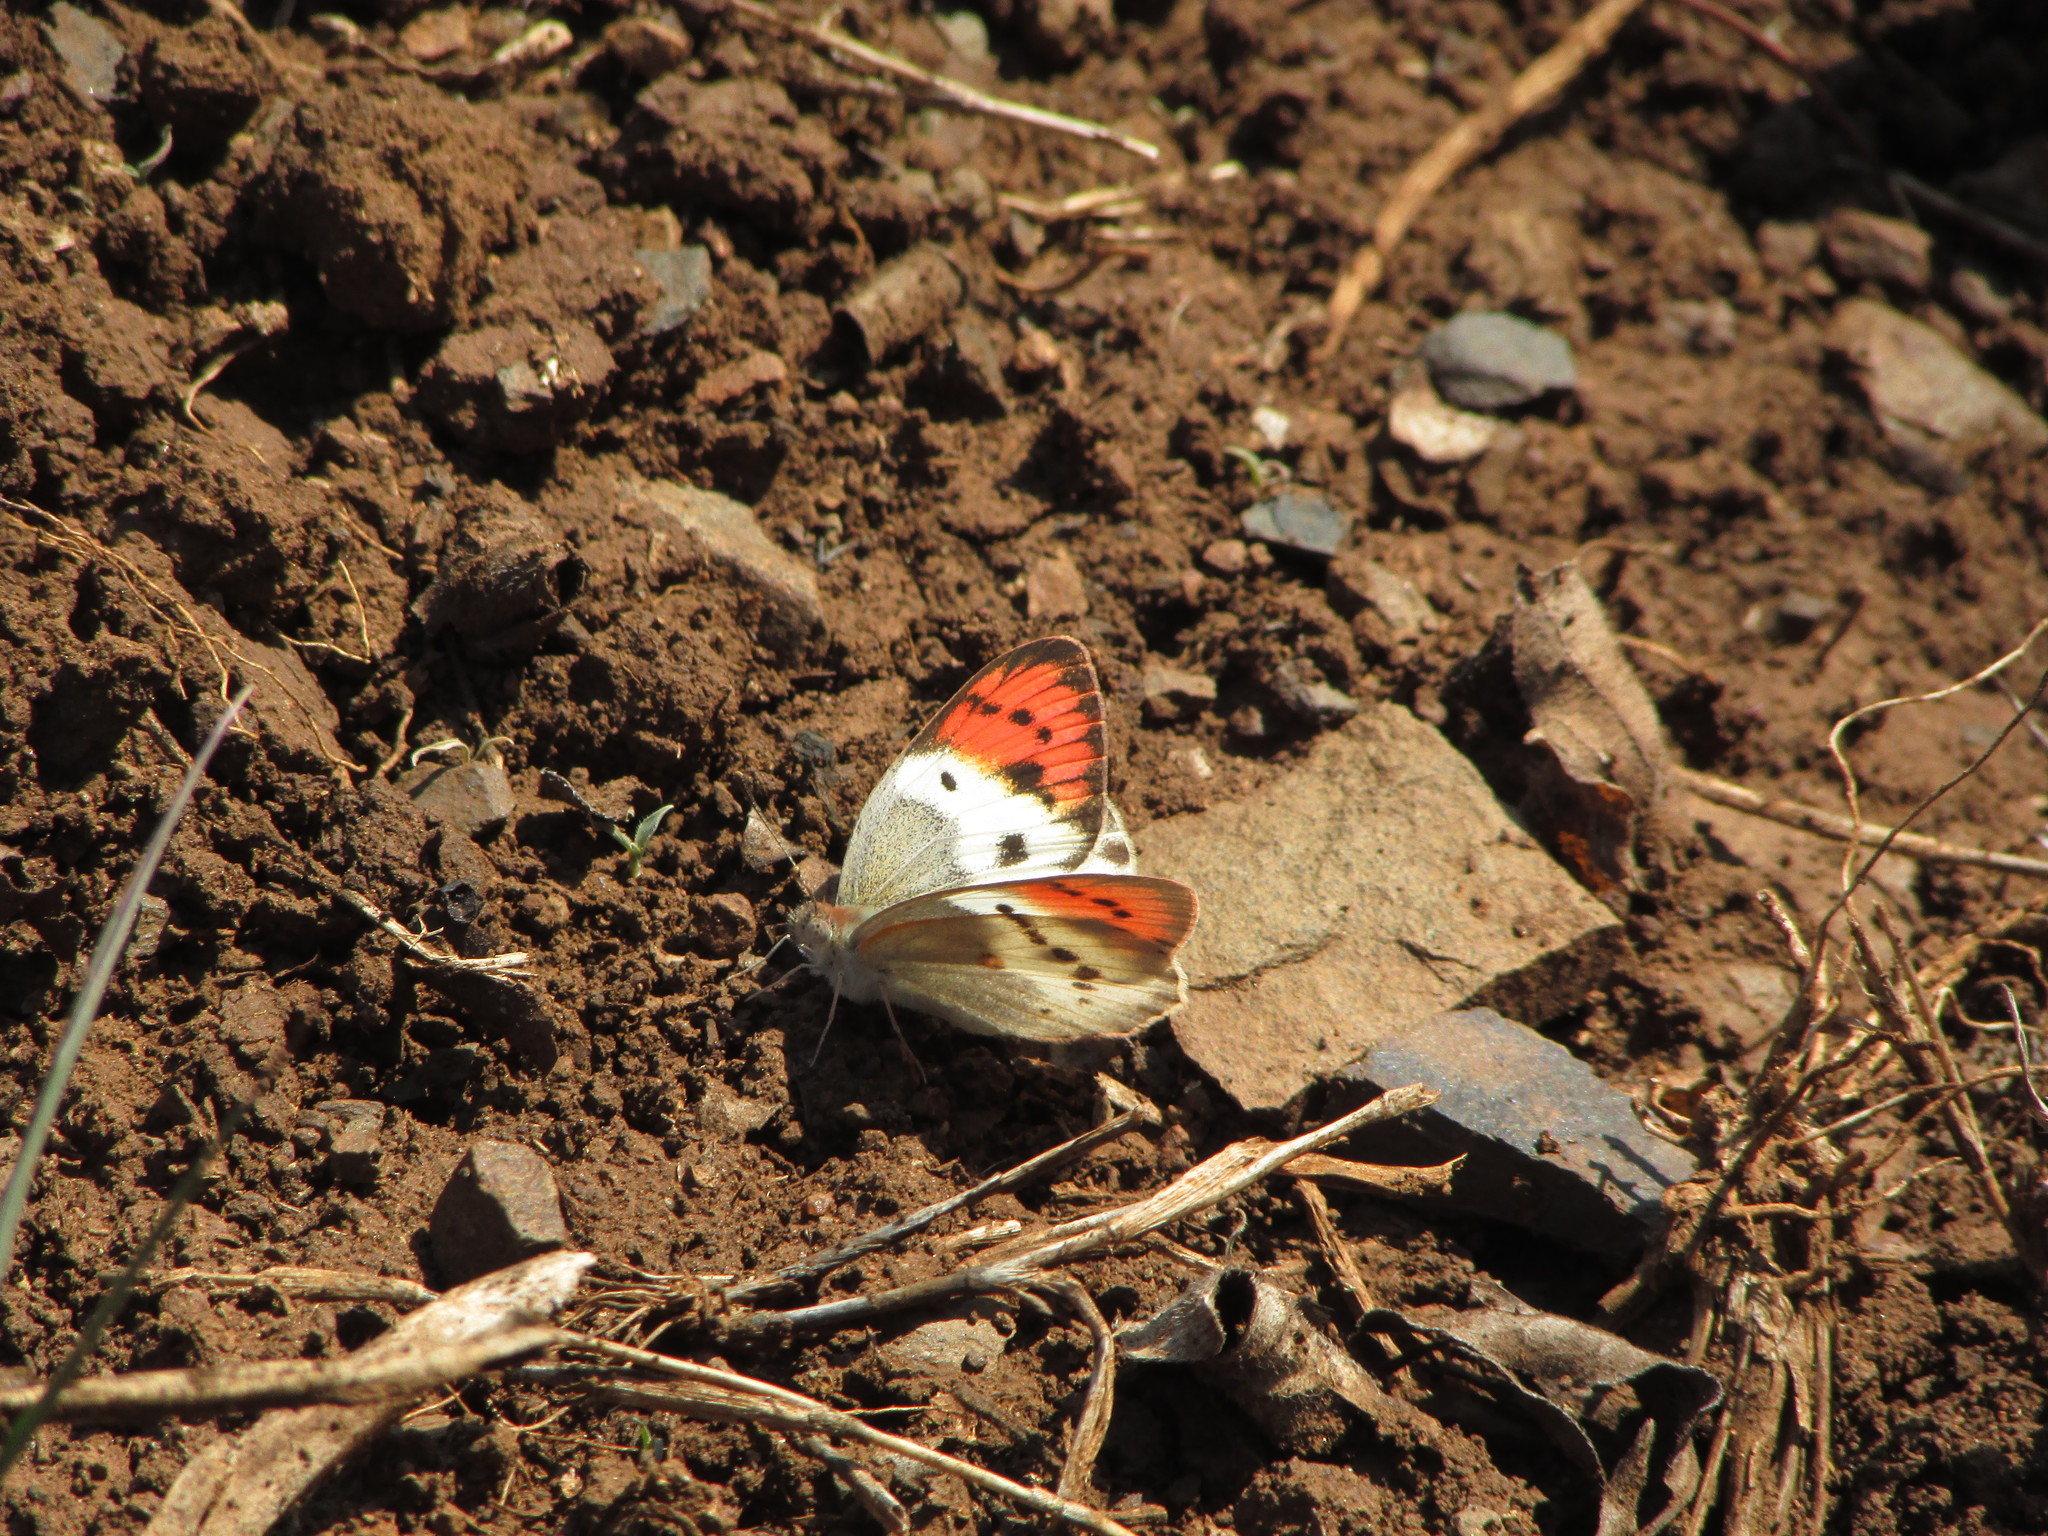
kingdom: Animalia
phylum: Arthropoda
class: Insecta
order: Lepidoptera
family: Pieridae
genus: Colotis
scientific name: Colotis annae
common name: Scarlet tip
